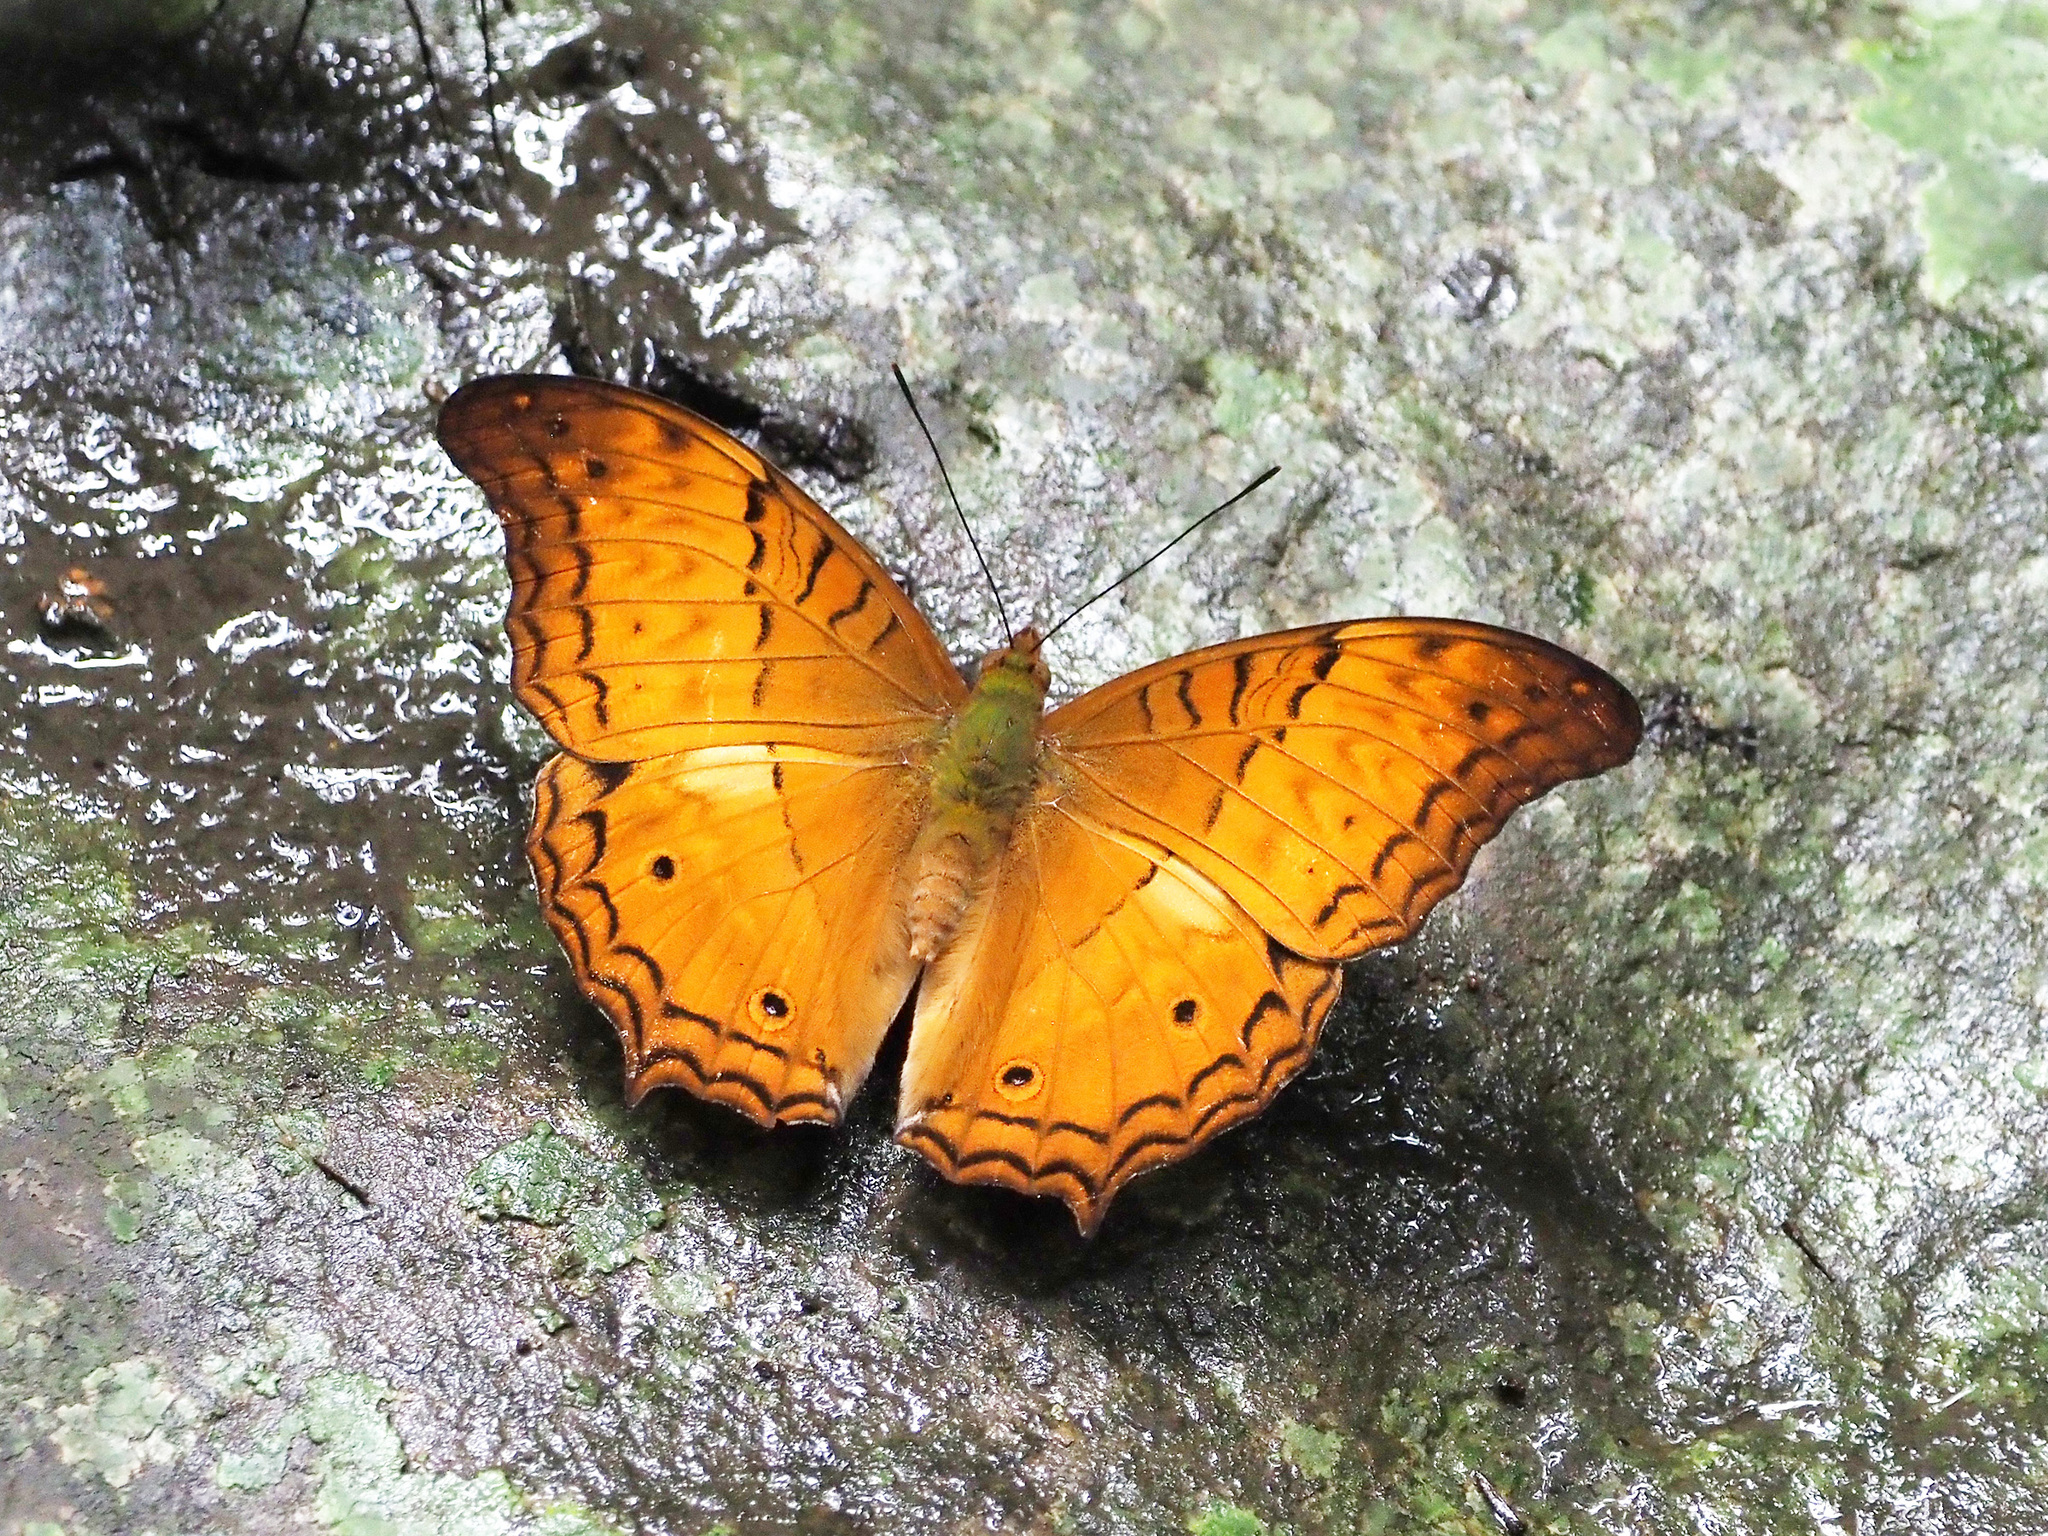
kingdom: Animalia
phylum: Arthropoda
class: Insecta
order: Lepidoptera
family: Nymphalidae
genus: Vindula
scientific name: Vindula deione
